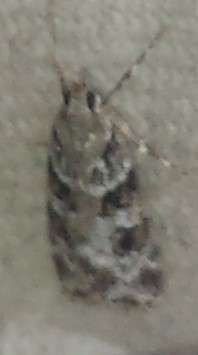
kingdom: Animalia
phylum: Arthropoda
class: Insecta
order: Lepidoptera
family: Crambidae
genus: Scoparia
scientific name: Scoparia biplagialis
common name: Double-striped scoparia moth
